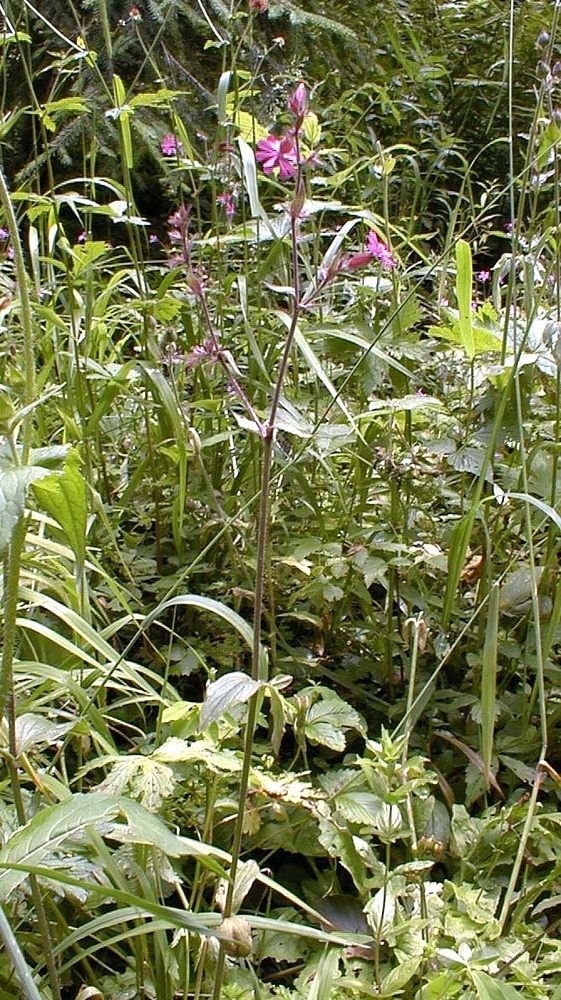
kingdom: Plantae
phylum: Tracheophyta
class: Magnoliopsida
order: Caryophyllales
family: Caryophyllaceae
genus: Silene
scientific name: Silene dioica
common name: Red campion
